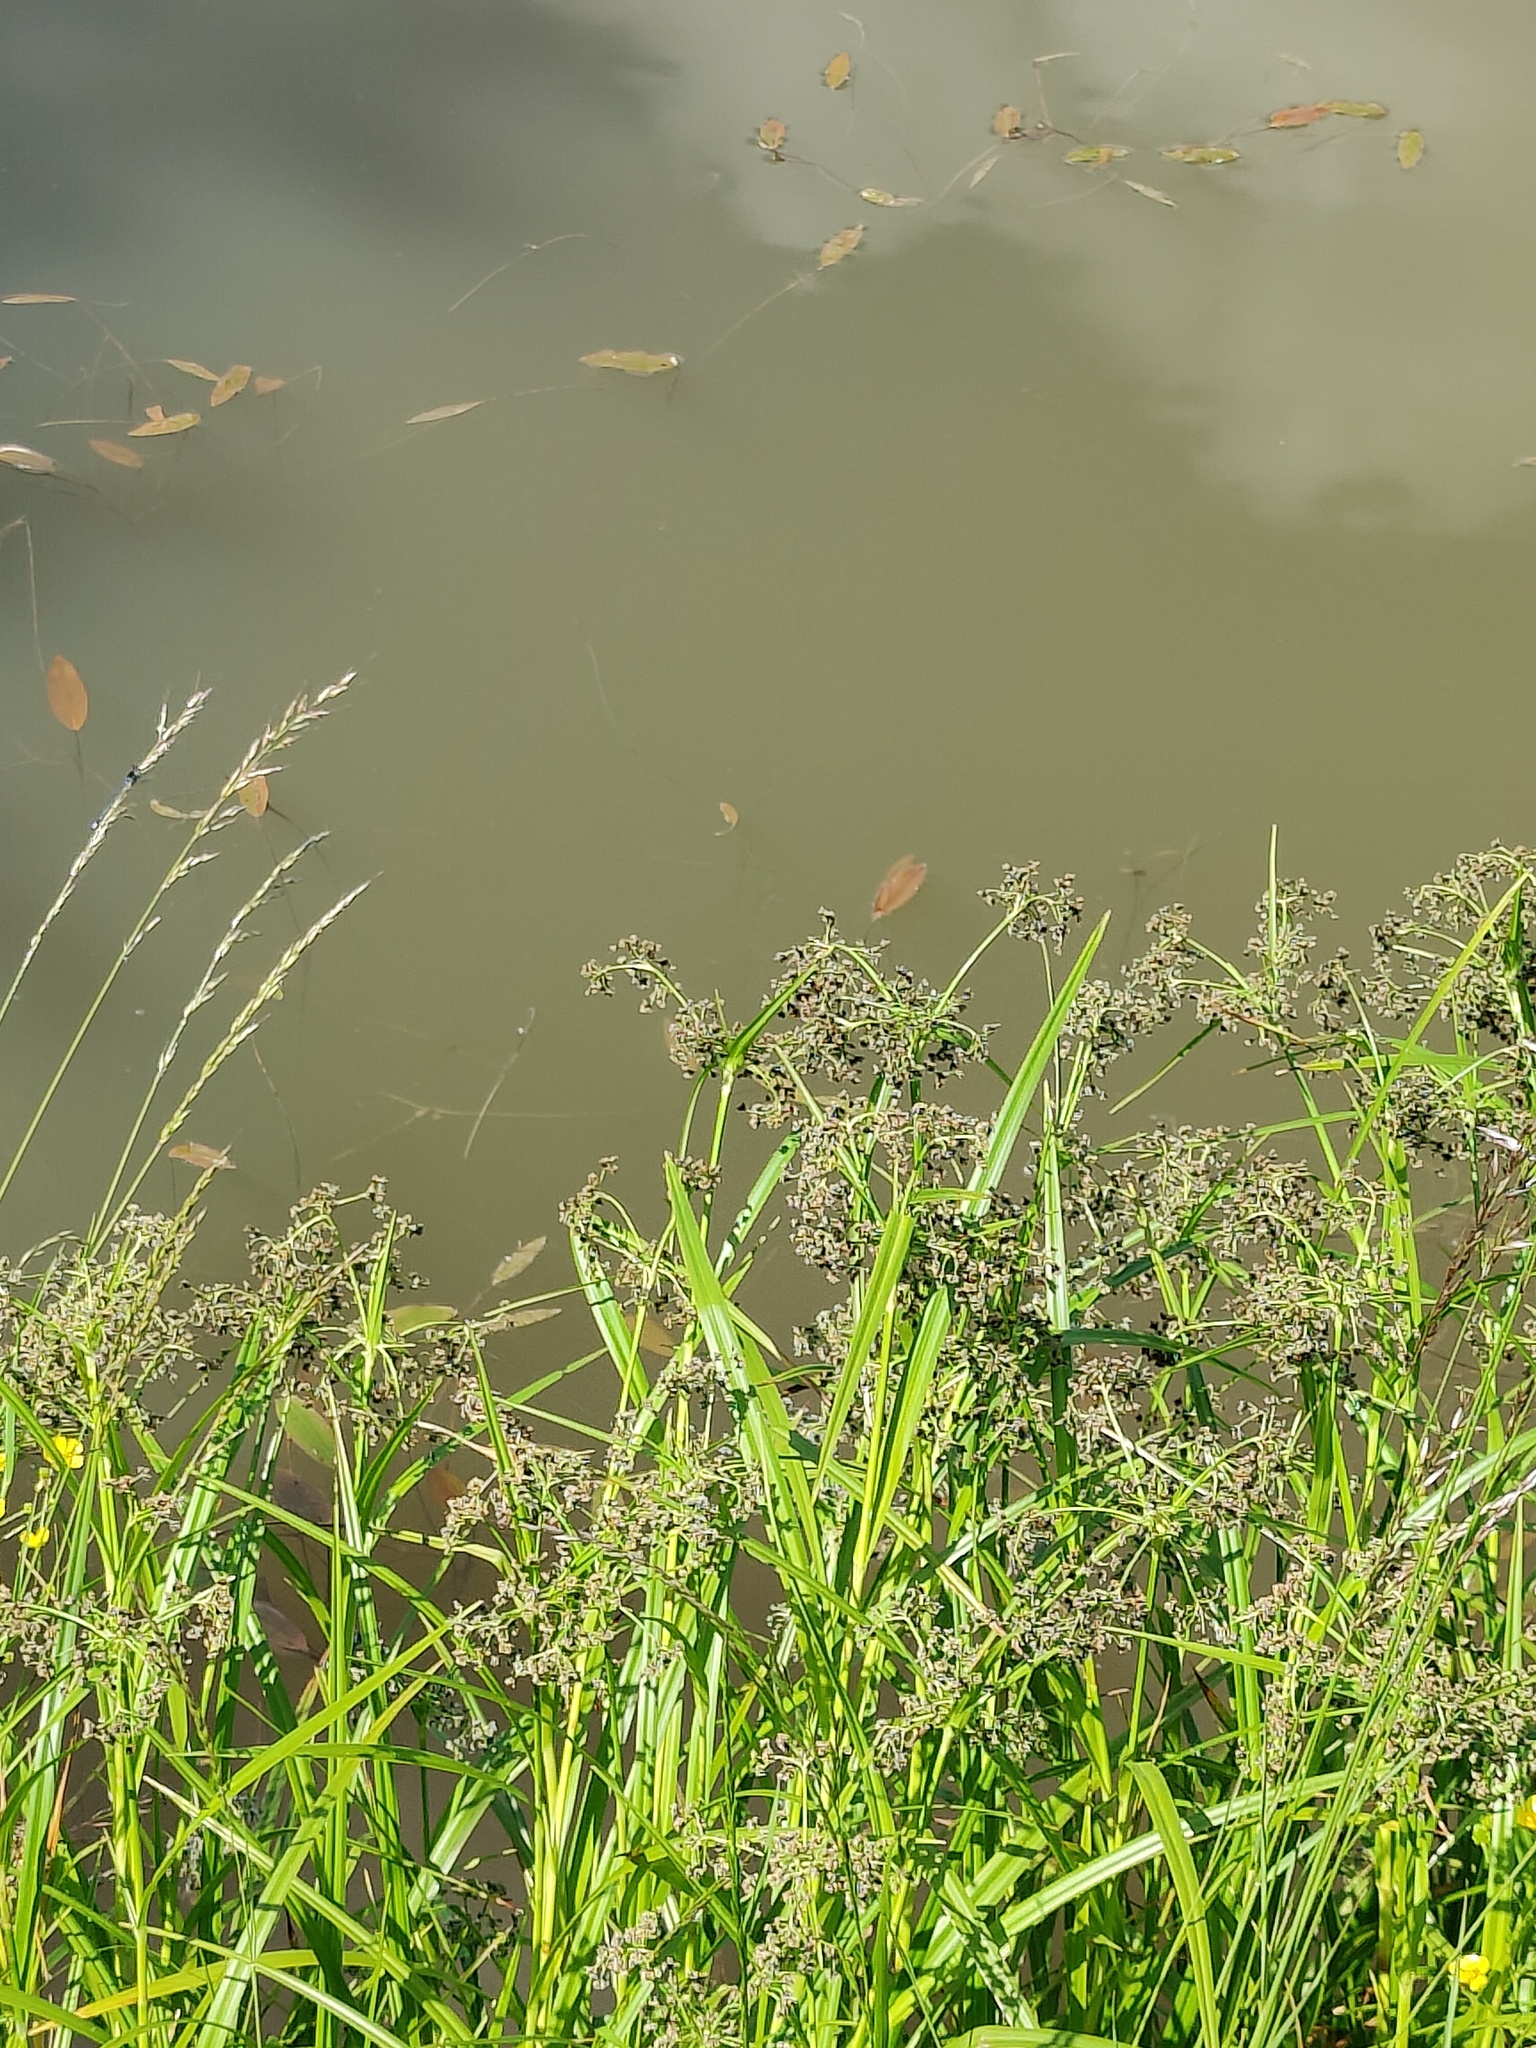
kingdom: Plantae
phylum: Tracheophyta
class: Liliopsida
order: Poales
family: Cyperaceae
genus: Scirpus
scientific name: Scirpus sylvaticus
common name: Wood club-rush
